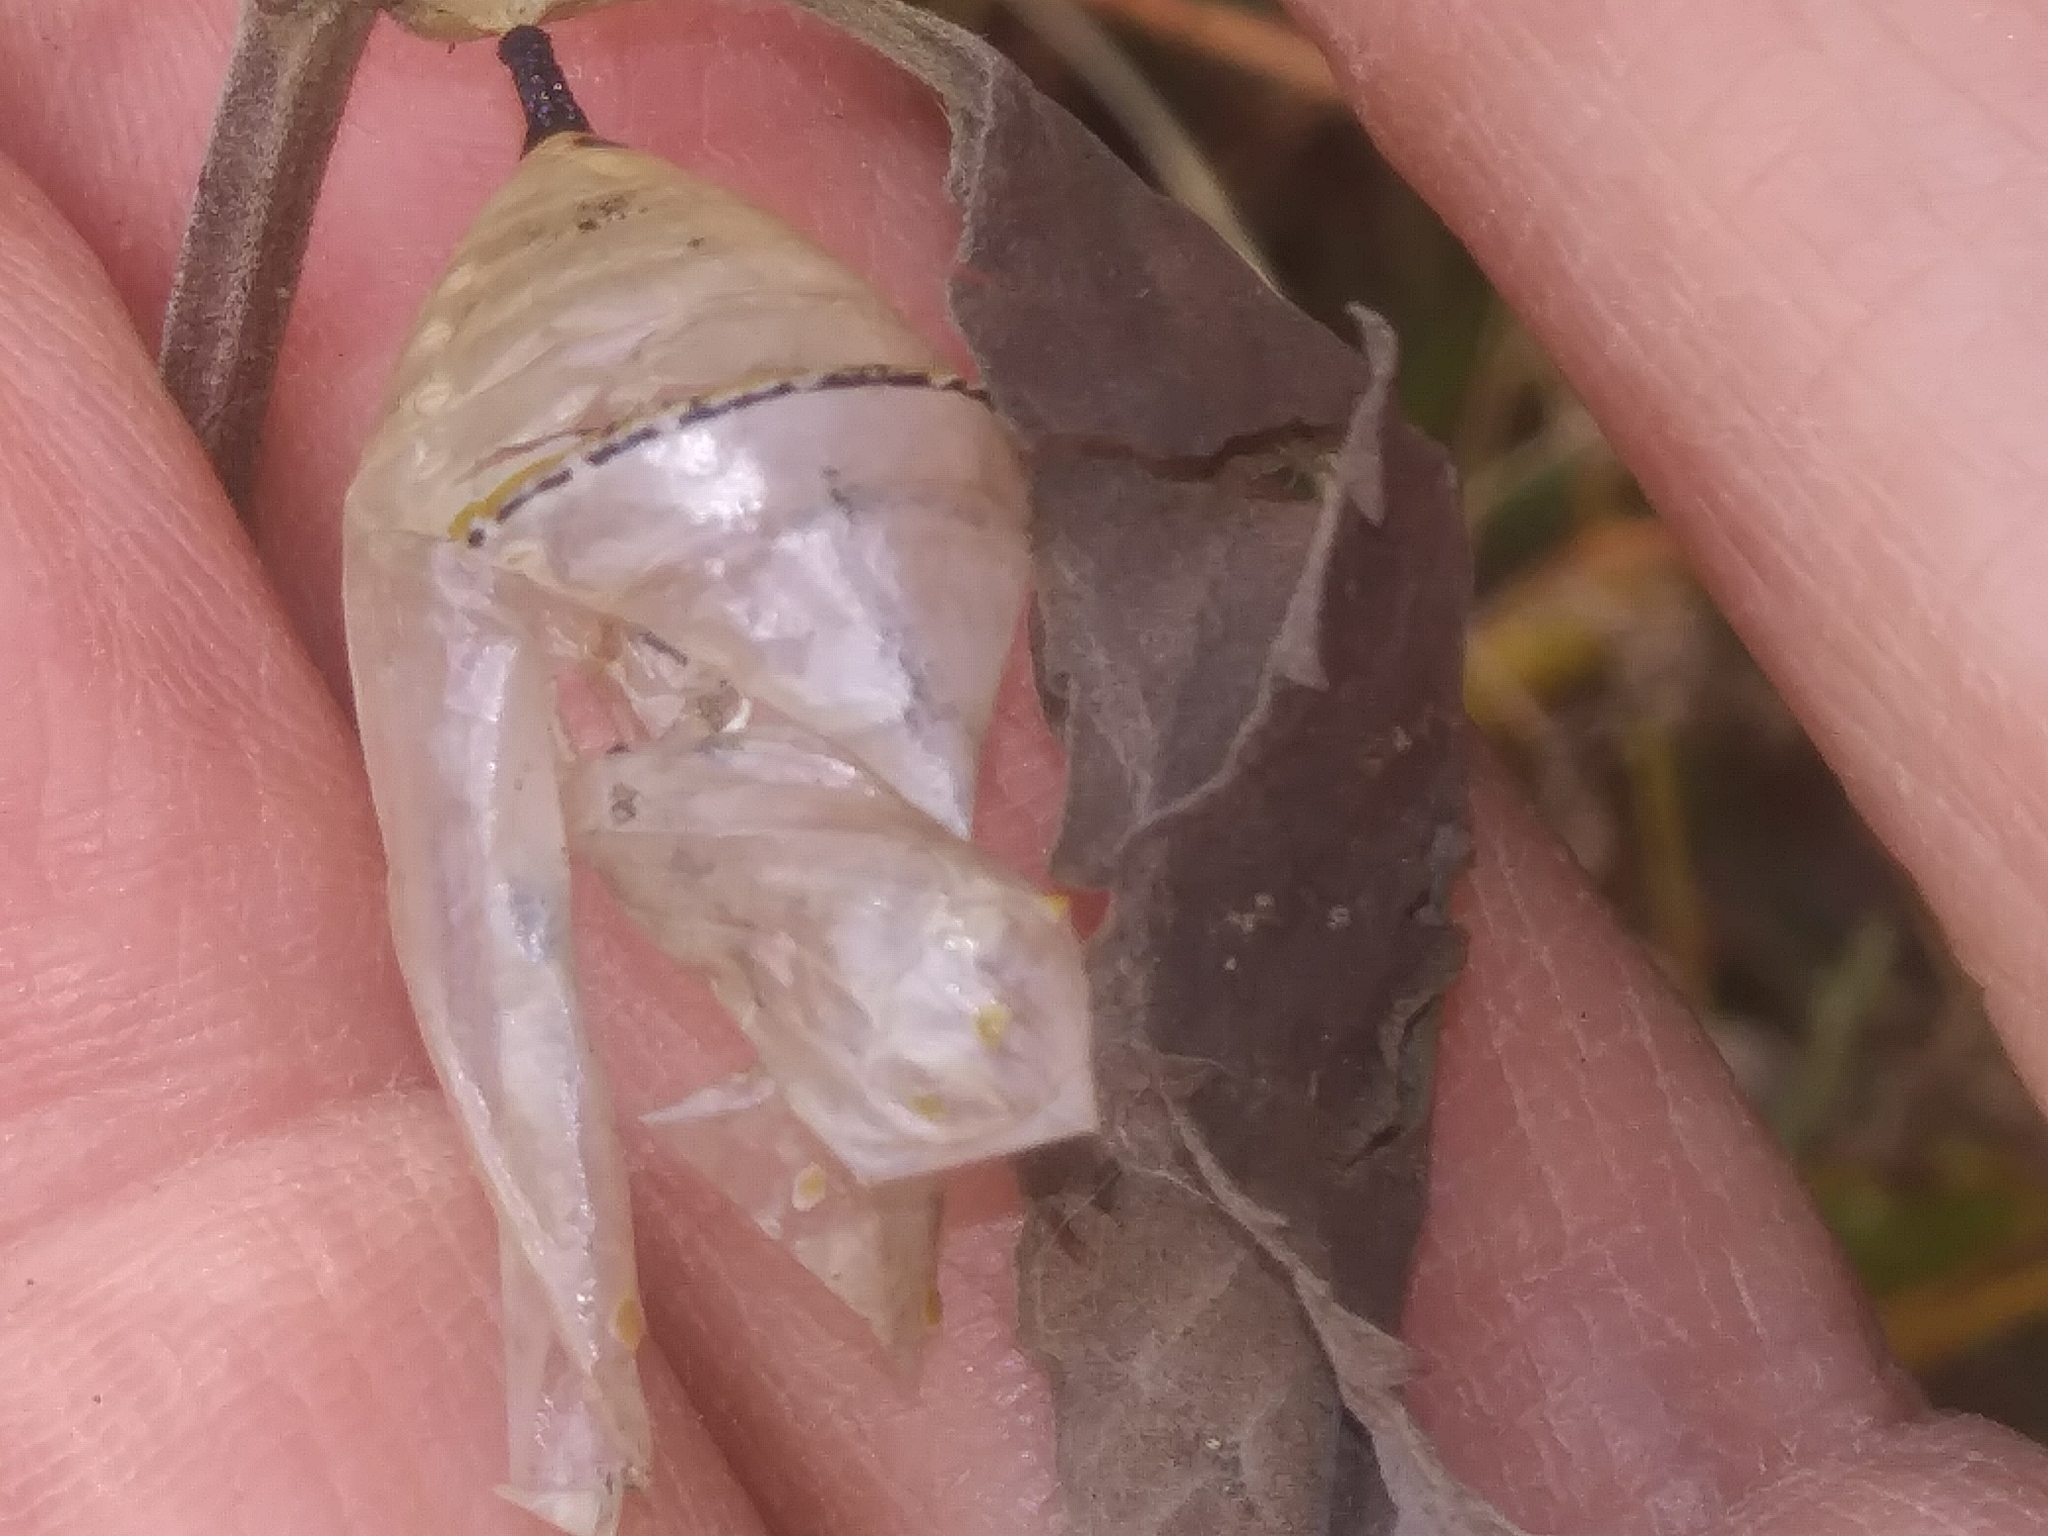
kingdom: Animalia
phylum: Arthropoda
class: Insecta
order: Lepidoptera
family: Nymphalidae
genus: Danaus
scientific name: Danaus plexippus
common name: Monarch
